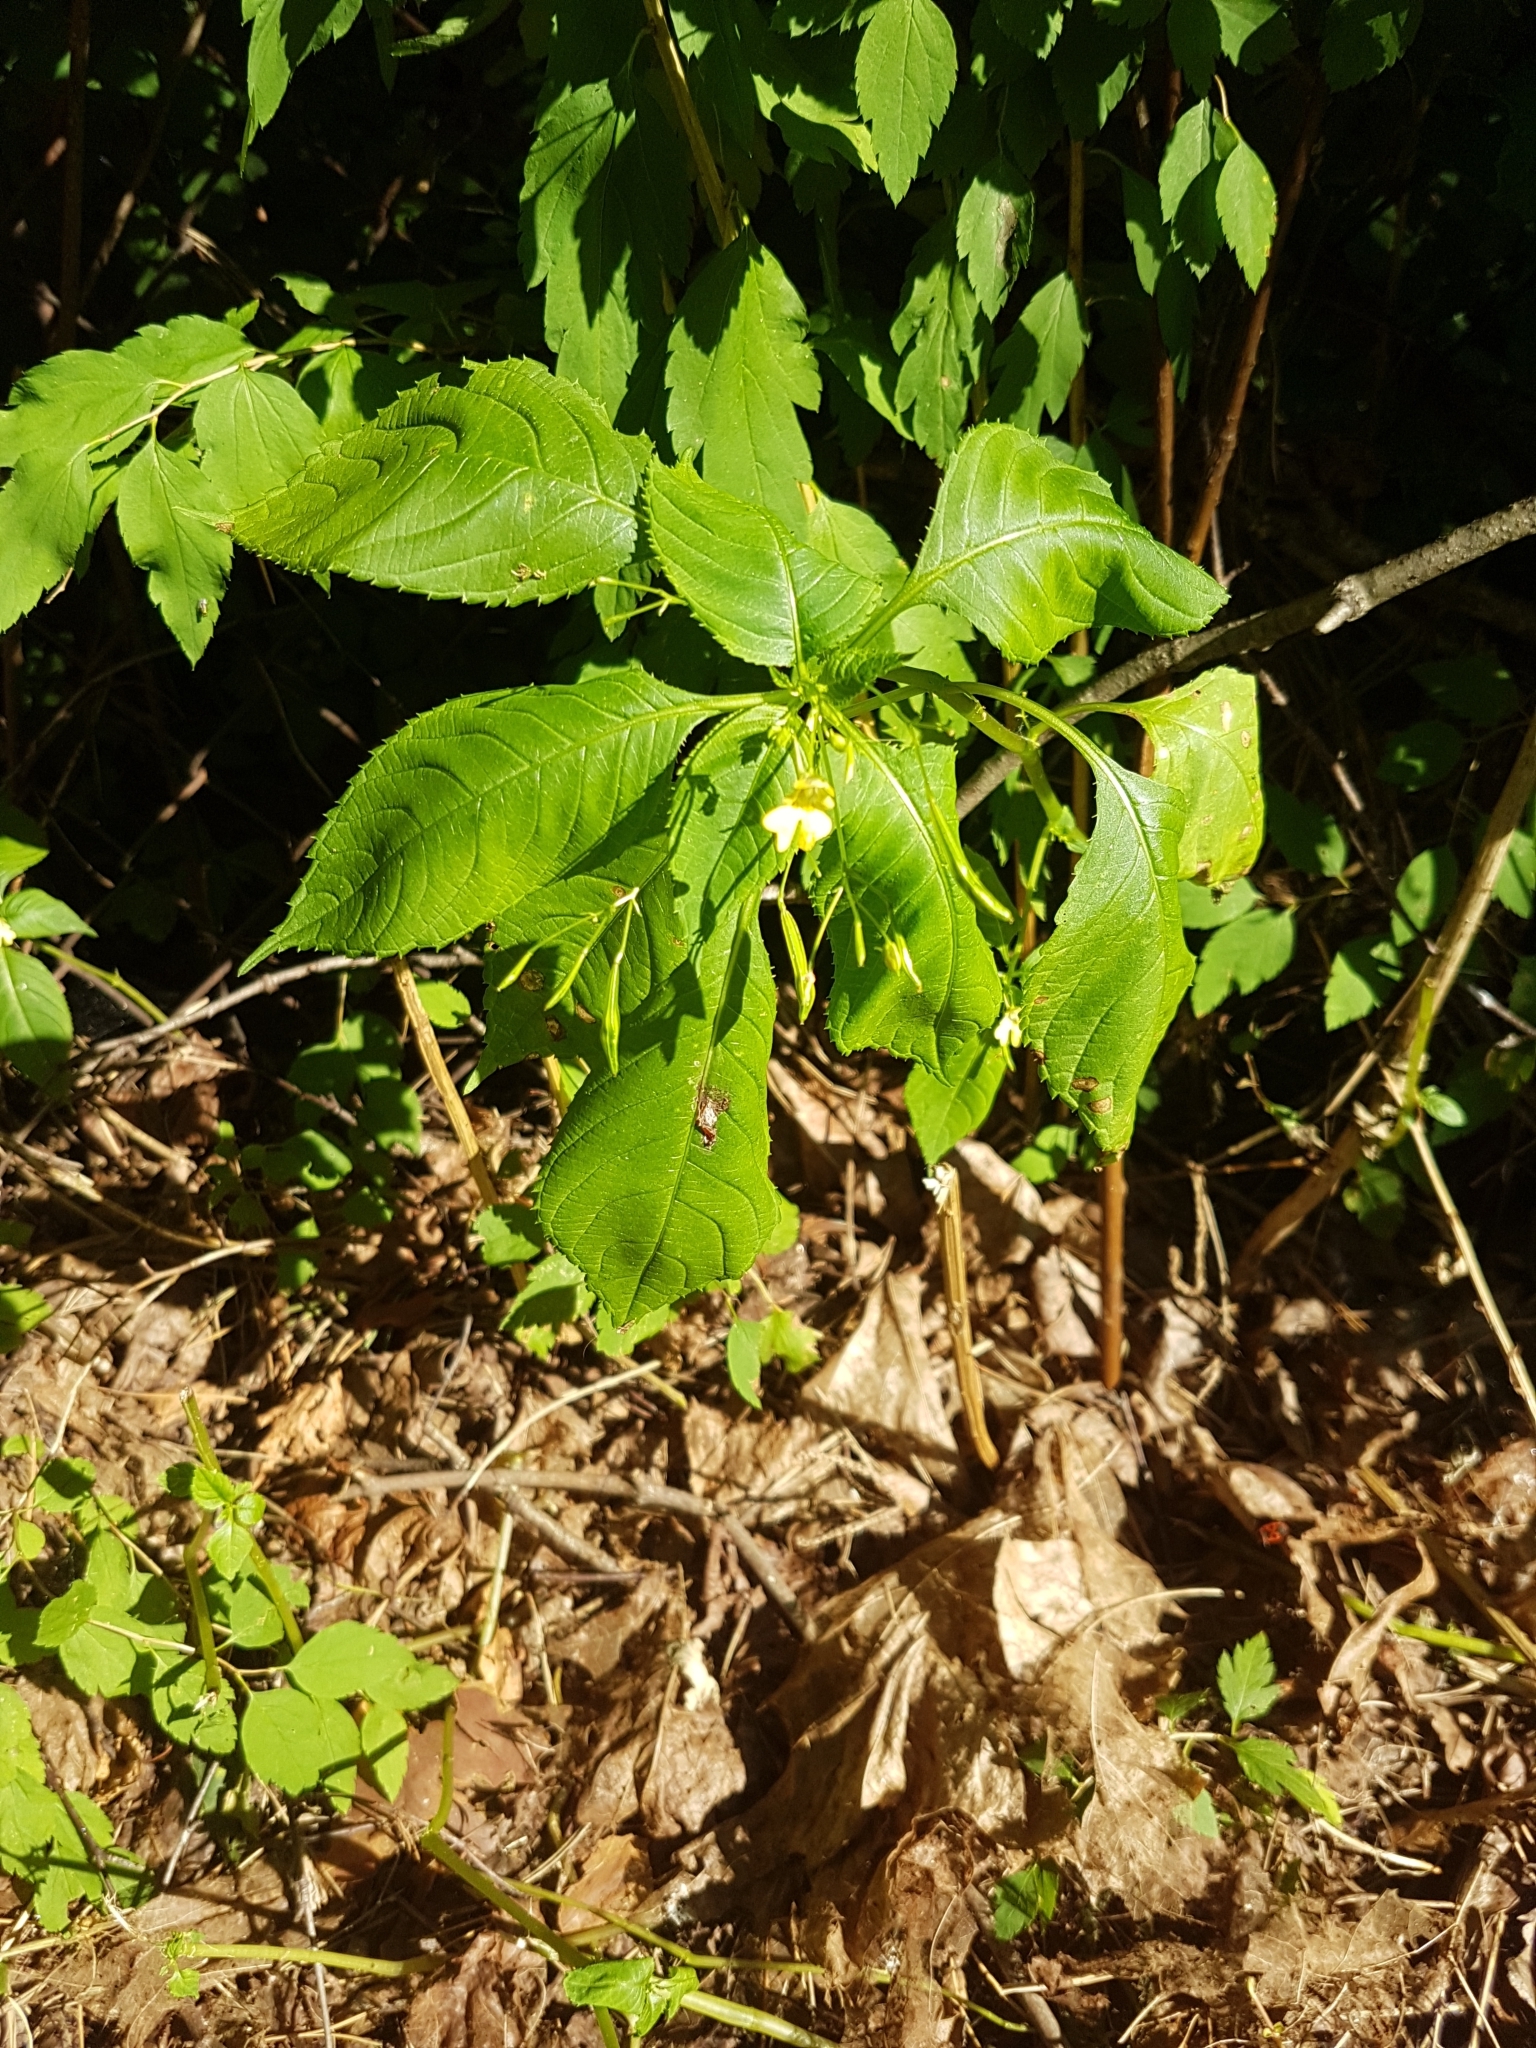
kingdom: Plantae
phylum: Tracheophyta
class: Magnoliopsida
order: Ericales
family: Balsaminaceae
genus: Impatiens
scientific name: Impatiens parviflora
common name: Small balsam
